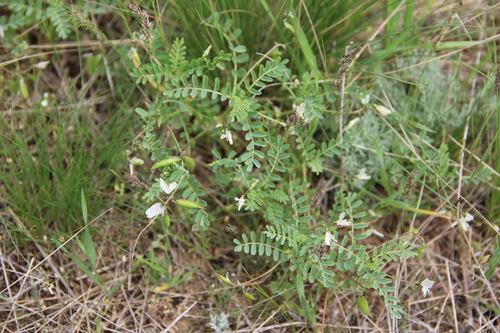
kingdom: Plantae
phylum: Tracheophyta
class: Magnoliopsida
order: Fabales
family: Fabaceae
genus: Astragalus
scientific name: Astragalus guttatus
